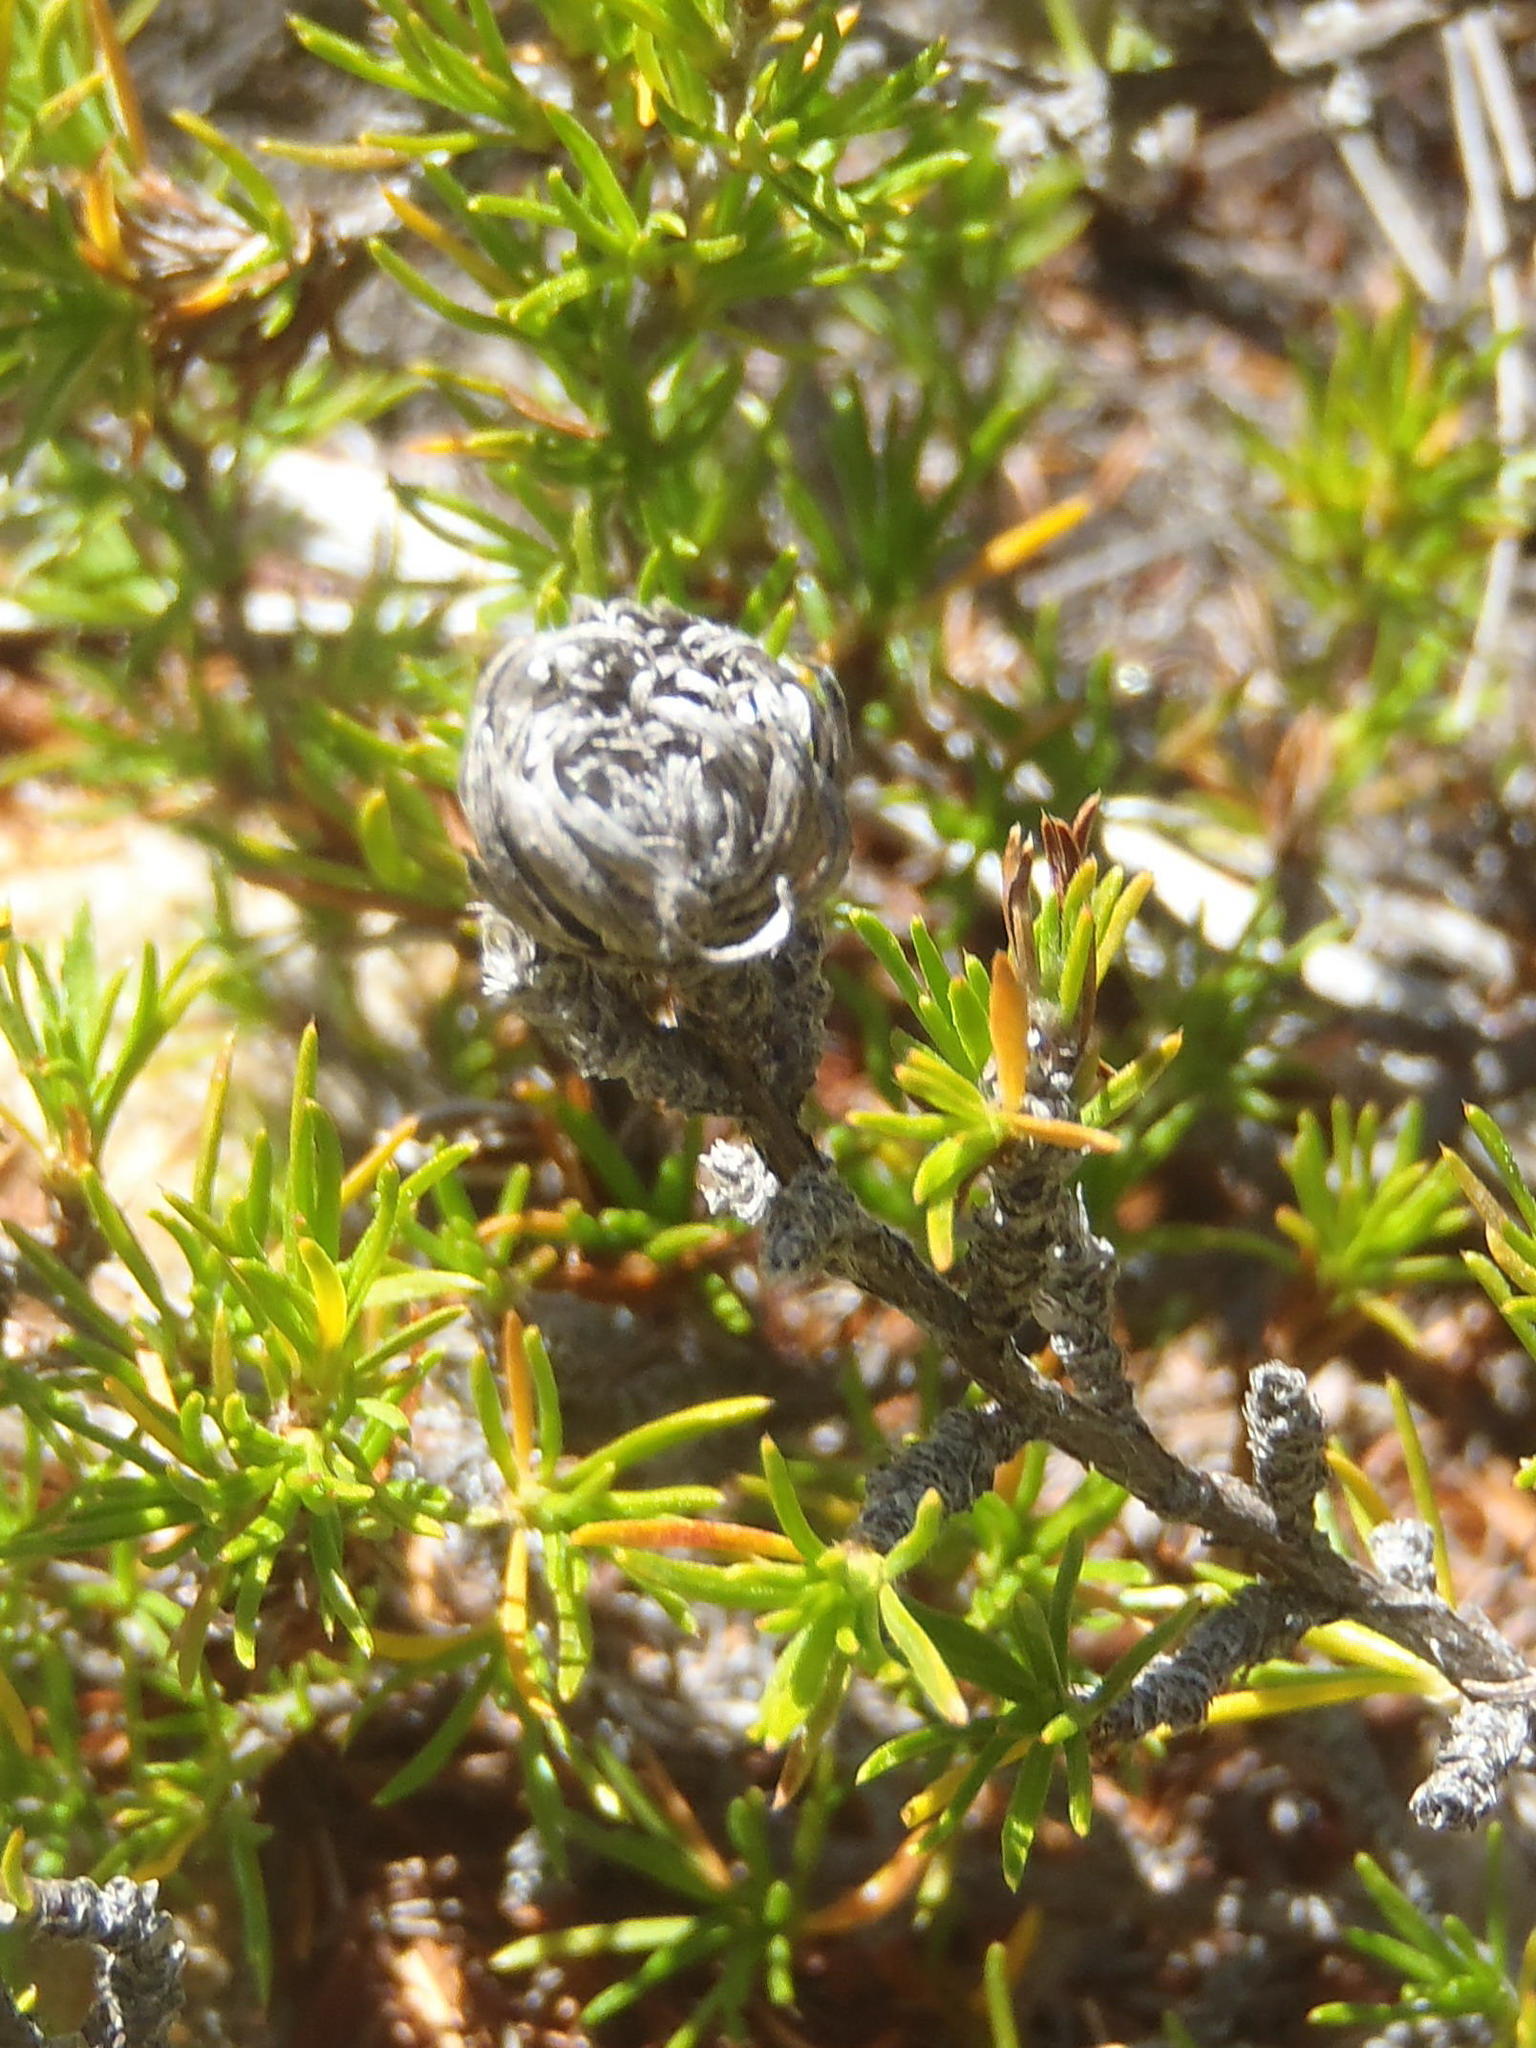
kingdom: Plantae
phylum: Tracheophyta
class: Magnoliopsida
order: Rosales
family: Rosaceae
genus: Cliffortia
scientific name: Cliffortia tuberculata
